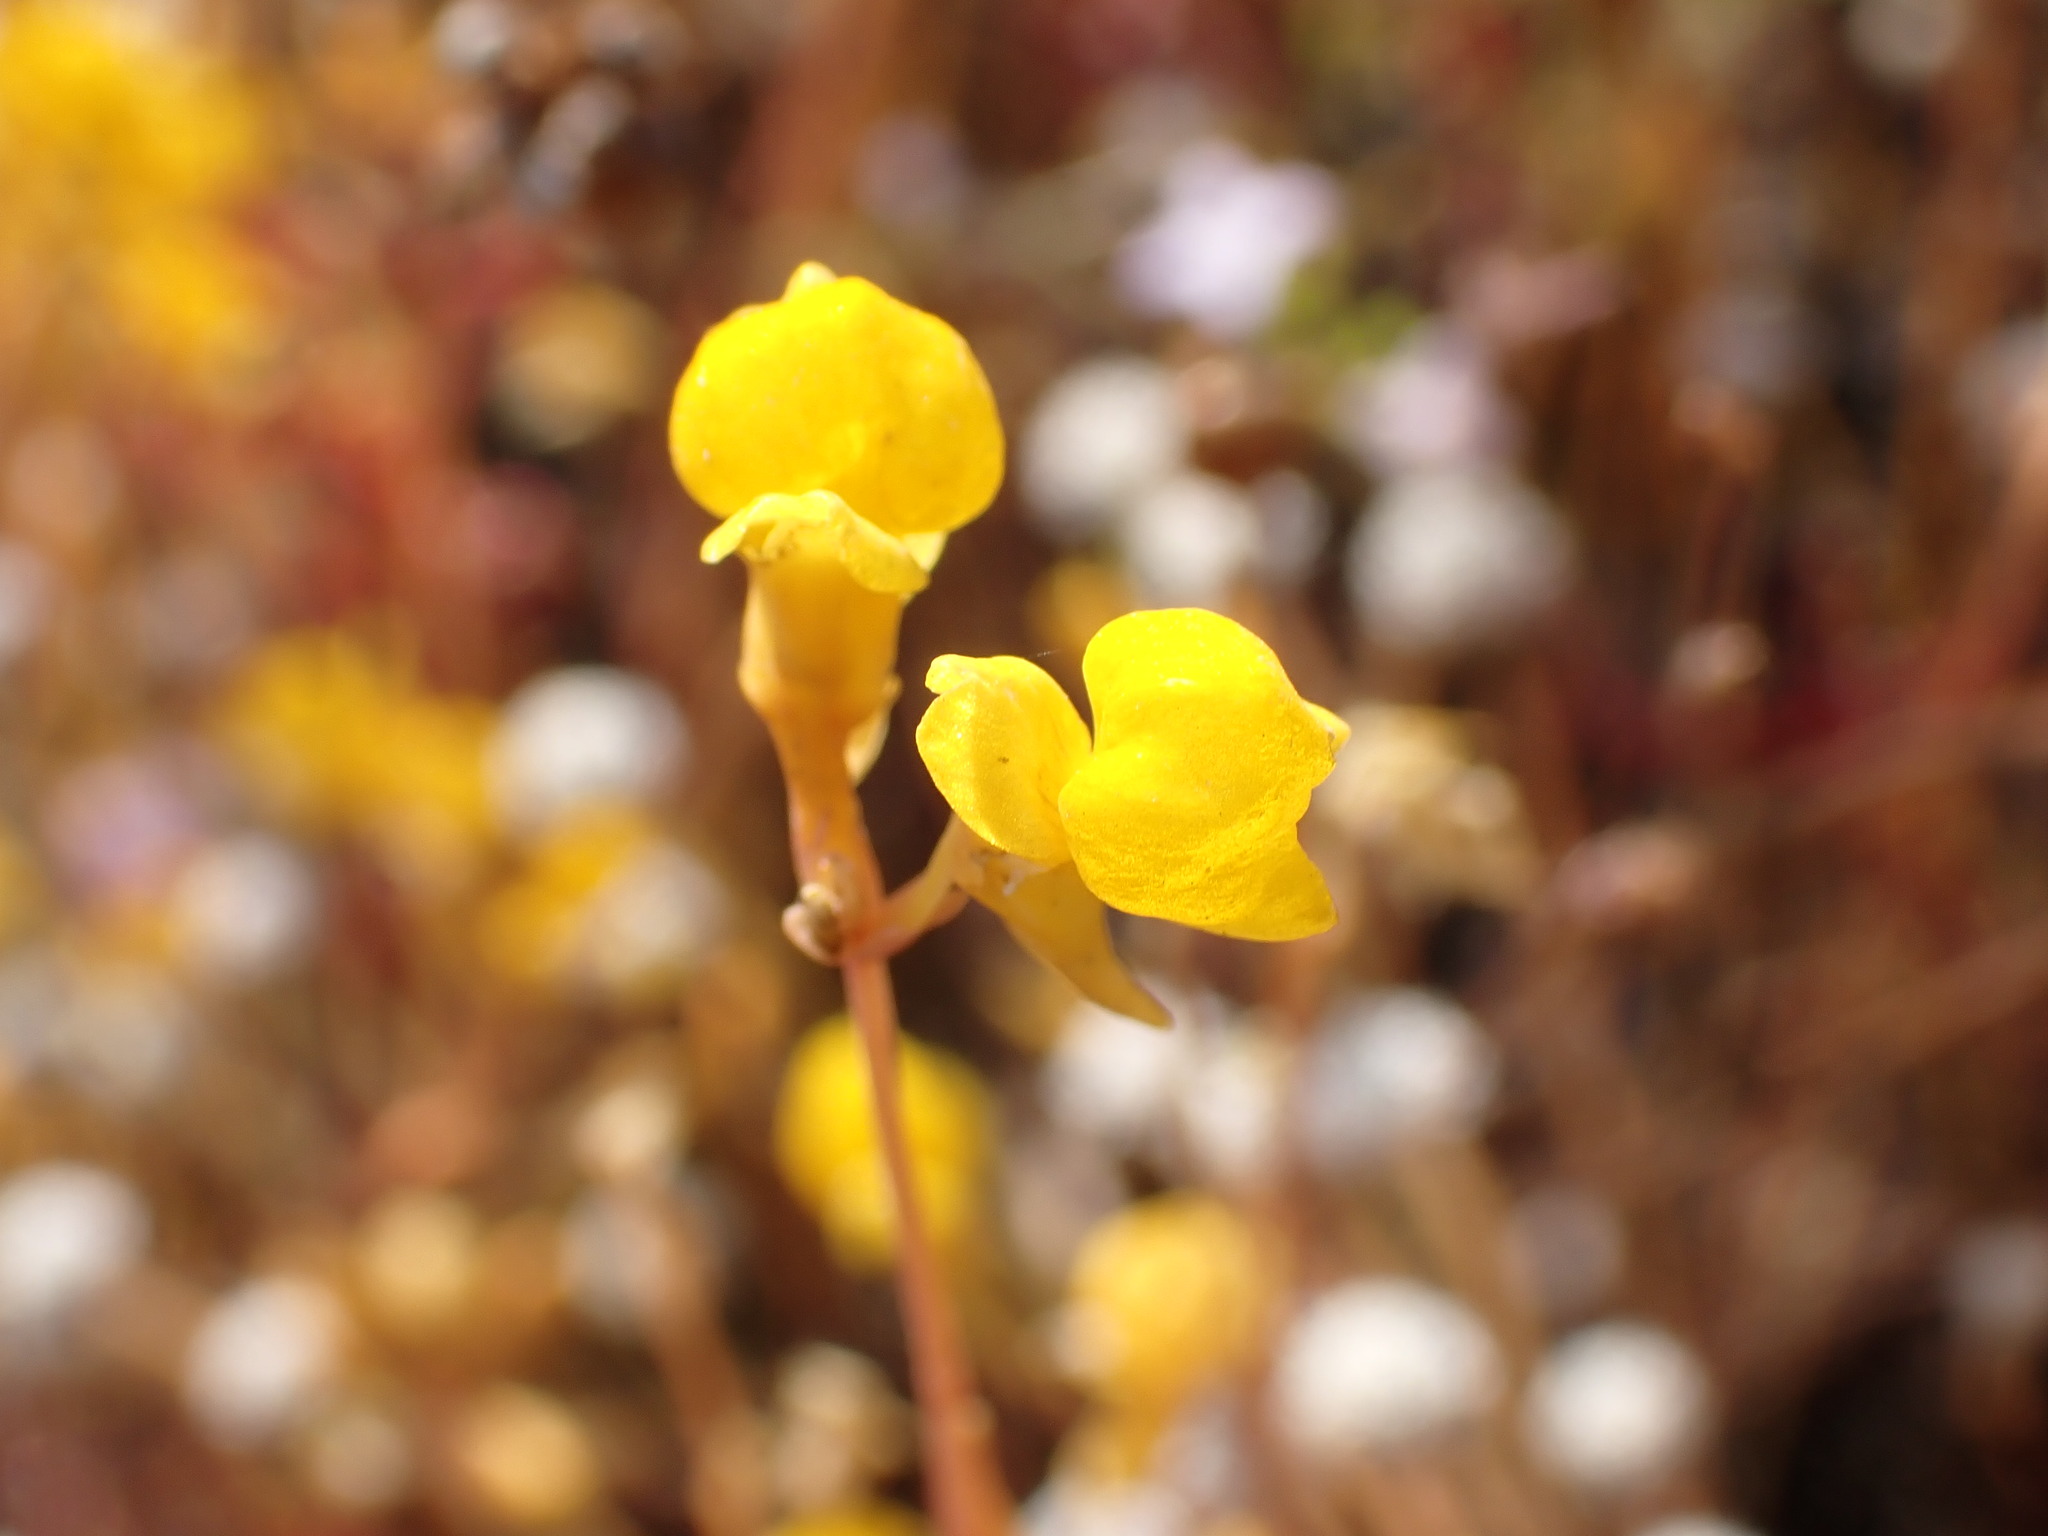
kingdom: Plantae
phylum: Tracheophyta
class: Magnoliopsida
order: Lamiales
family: Lentibulariaceae
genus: Utricularia
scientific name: Utricularia odorata
